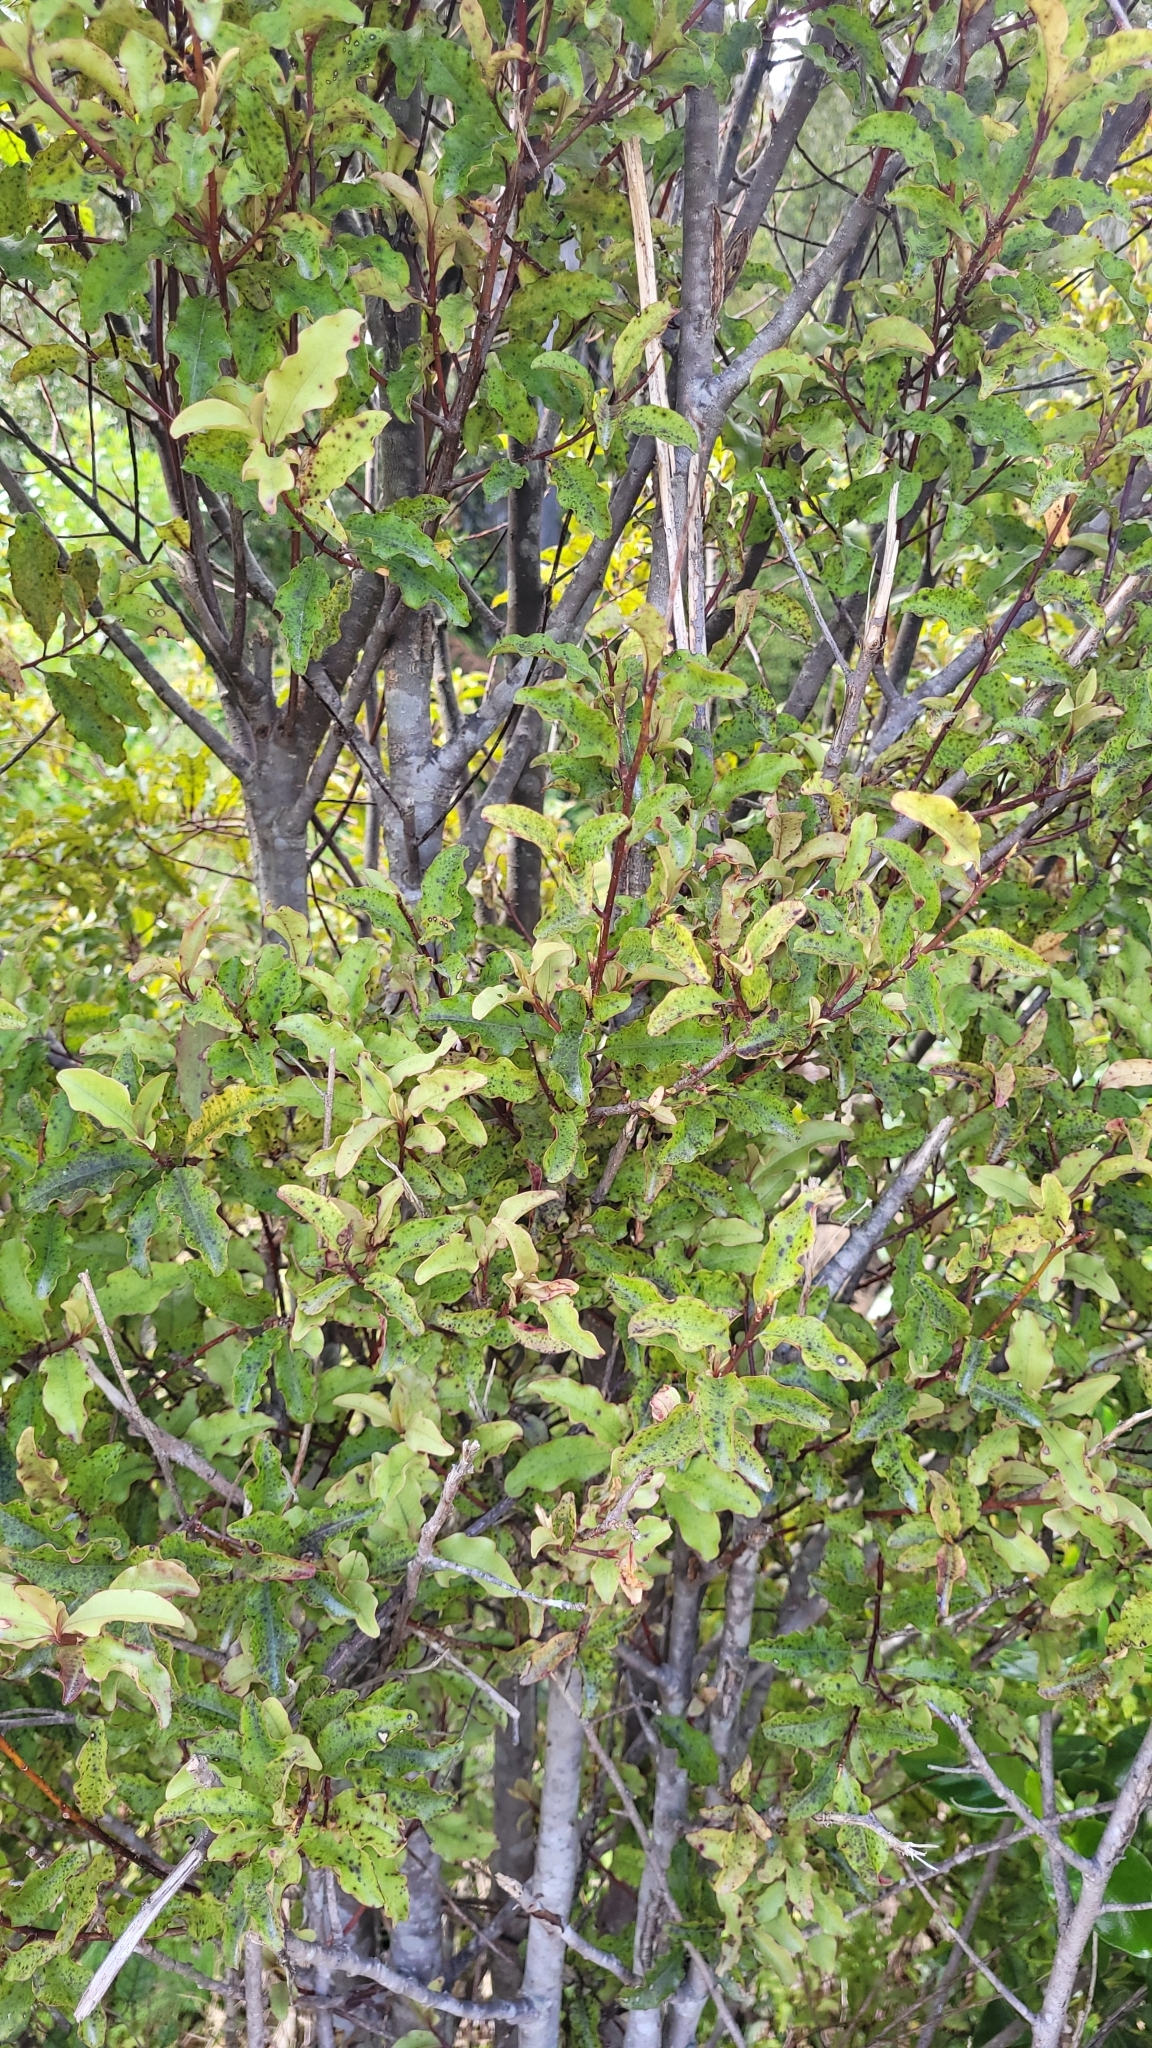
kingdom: Plantae
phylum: Tracheophyta
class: Magnoliopsida
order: Ericales
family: Primulaceae
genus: Myrsine
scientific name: Myrsine australis
